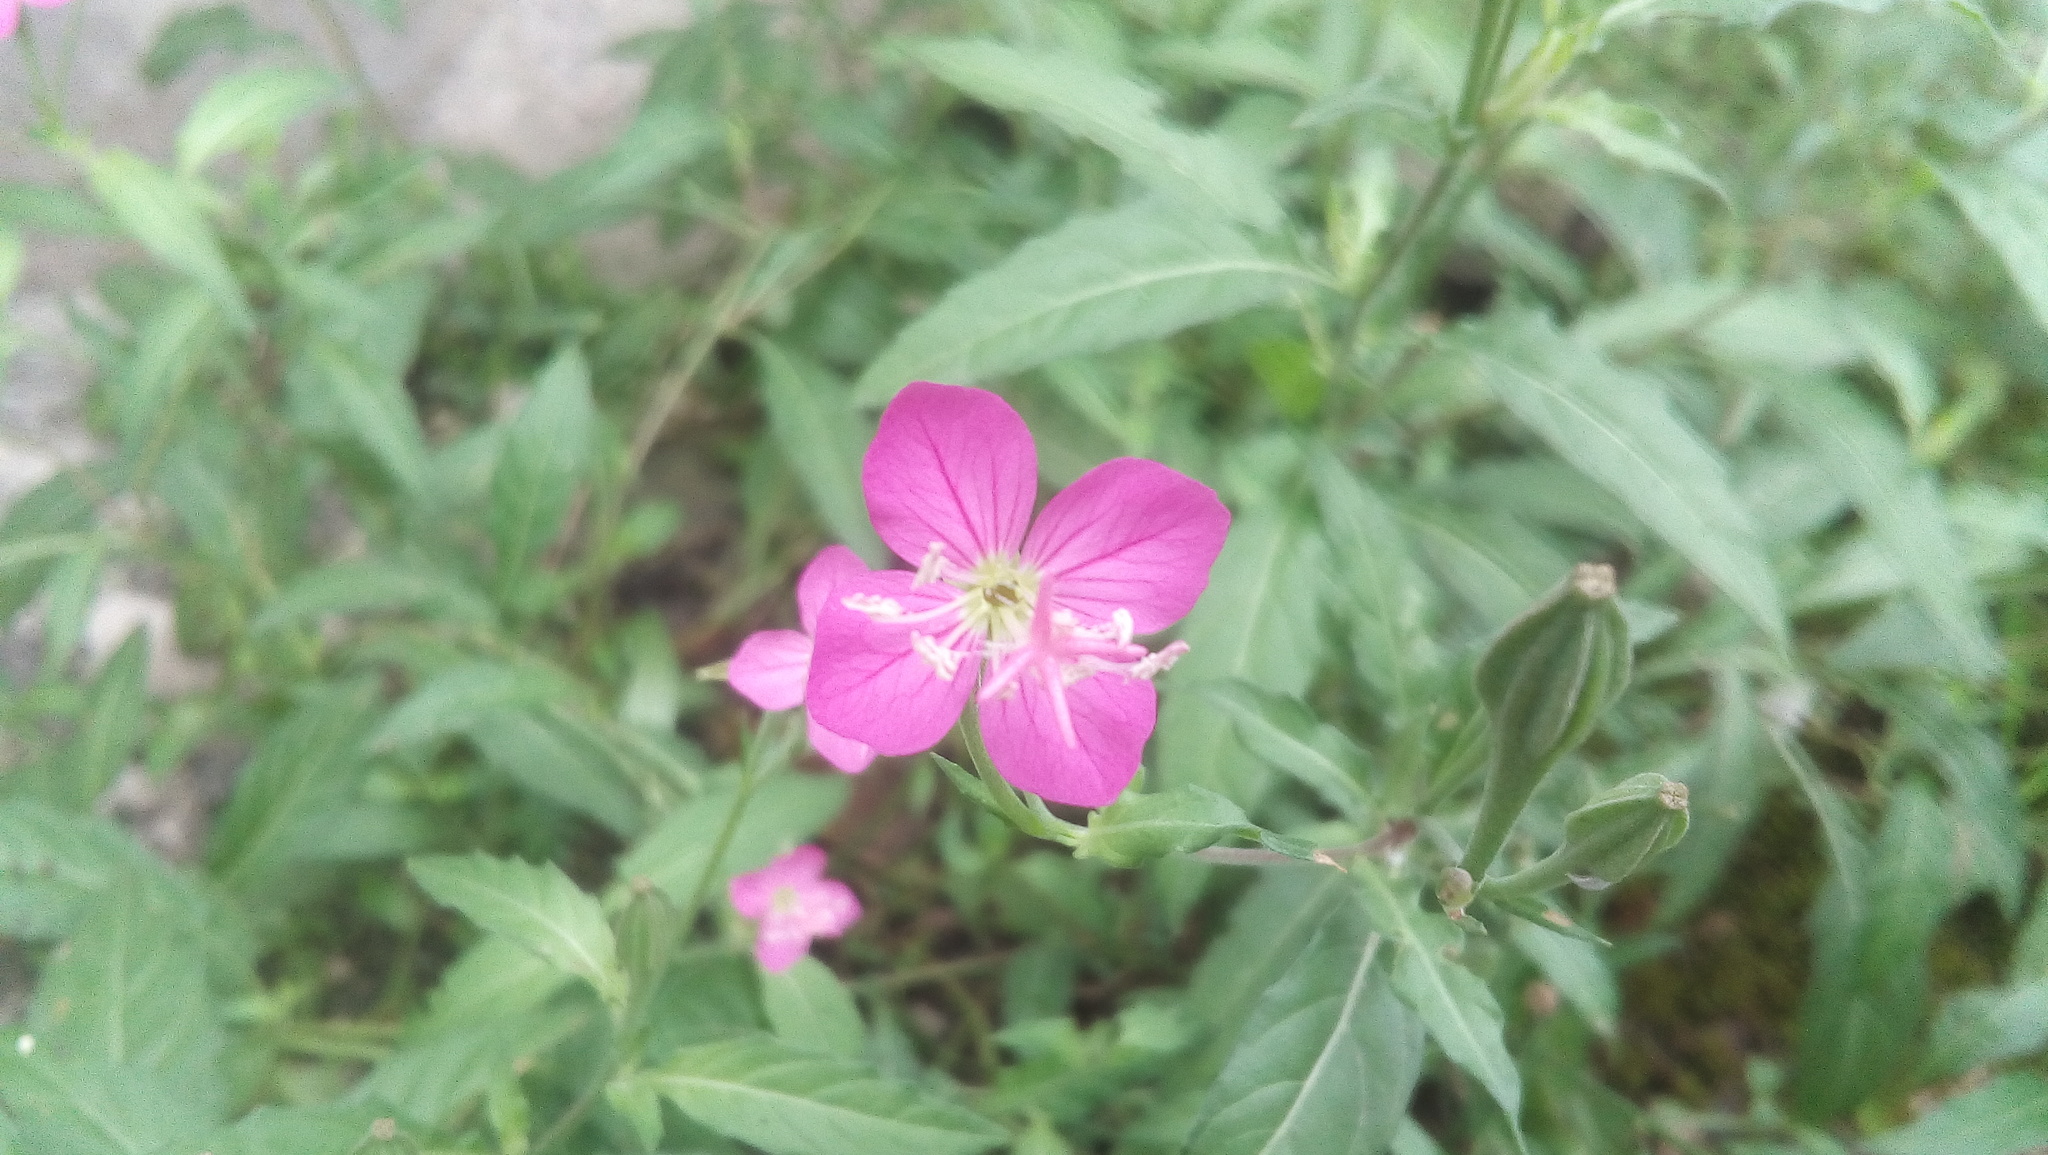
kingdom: Plantae
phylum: Tracheophyta
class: Magnoliopsida
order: Myrtales
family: Onagraceae
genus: Oenothera
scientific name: Oenothera rosea
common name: Rosy evening-primrose
